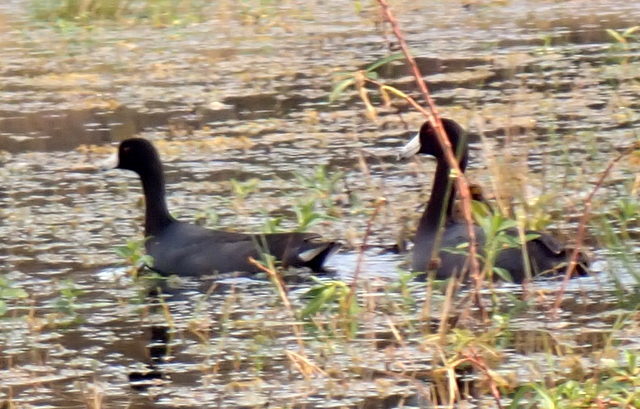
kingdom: Animalia
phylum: Chordata
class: Aves
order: Gruiformes
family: Rallidae
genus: Fulica
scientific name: Fulica americana
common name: American coot
